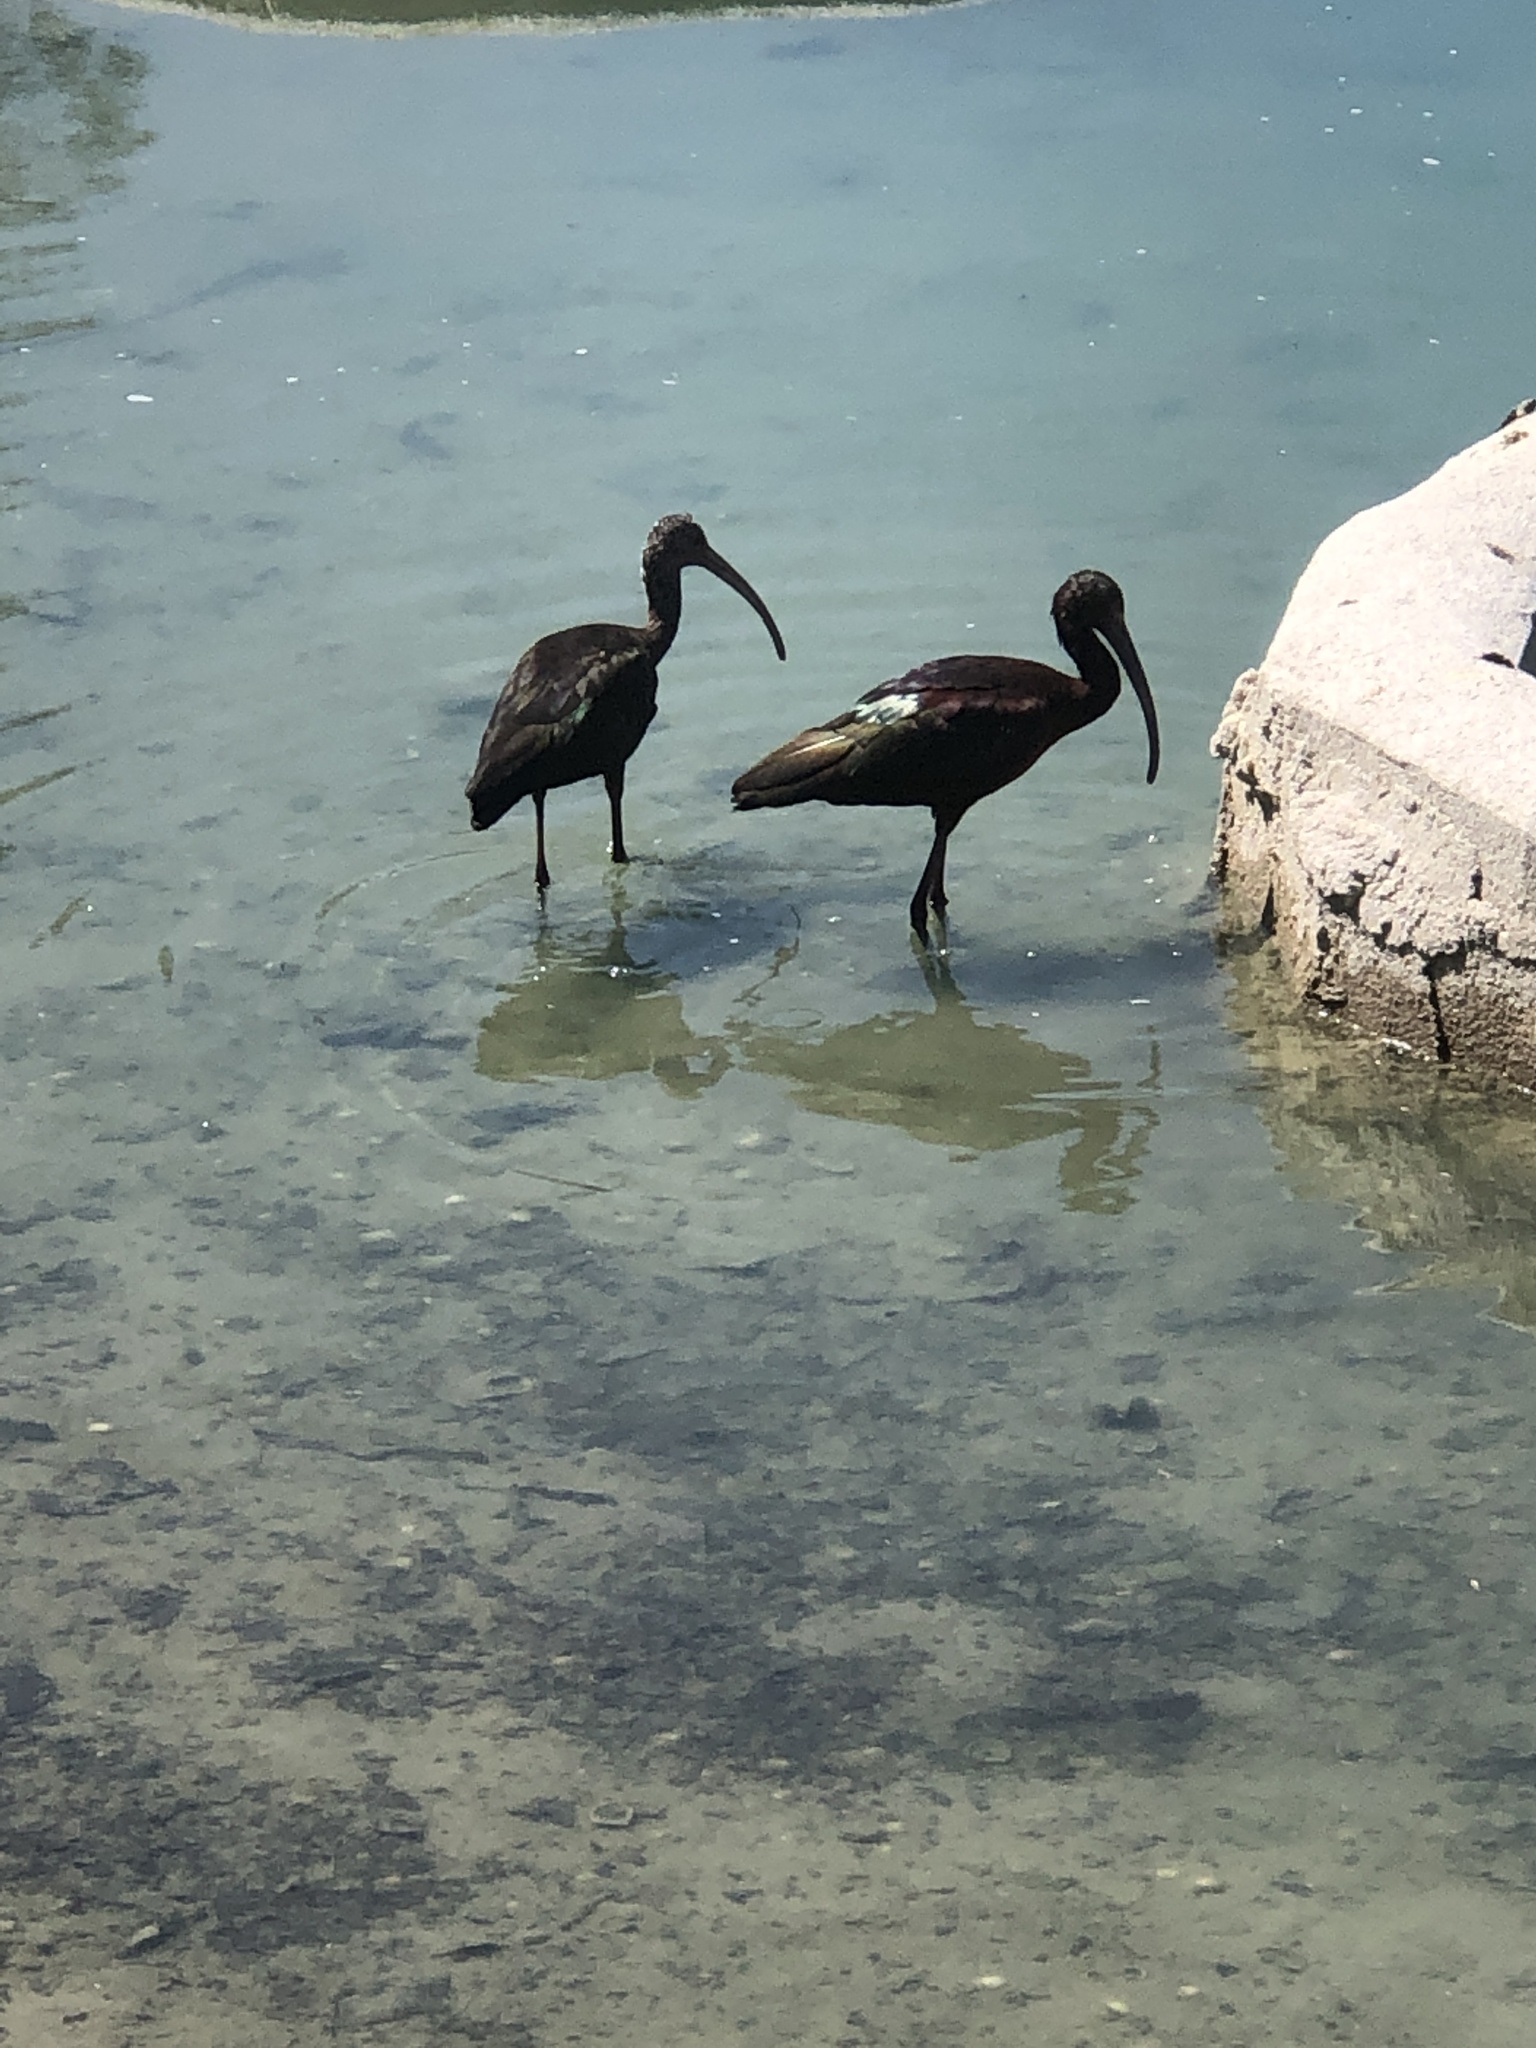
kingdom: Animalia
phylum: Chordata
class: Aves
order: Pelecaniformes
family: Threskiornithidae
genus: Plegadis
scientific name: Plegadis chihi
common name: White-faced ibis
